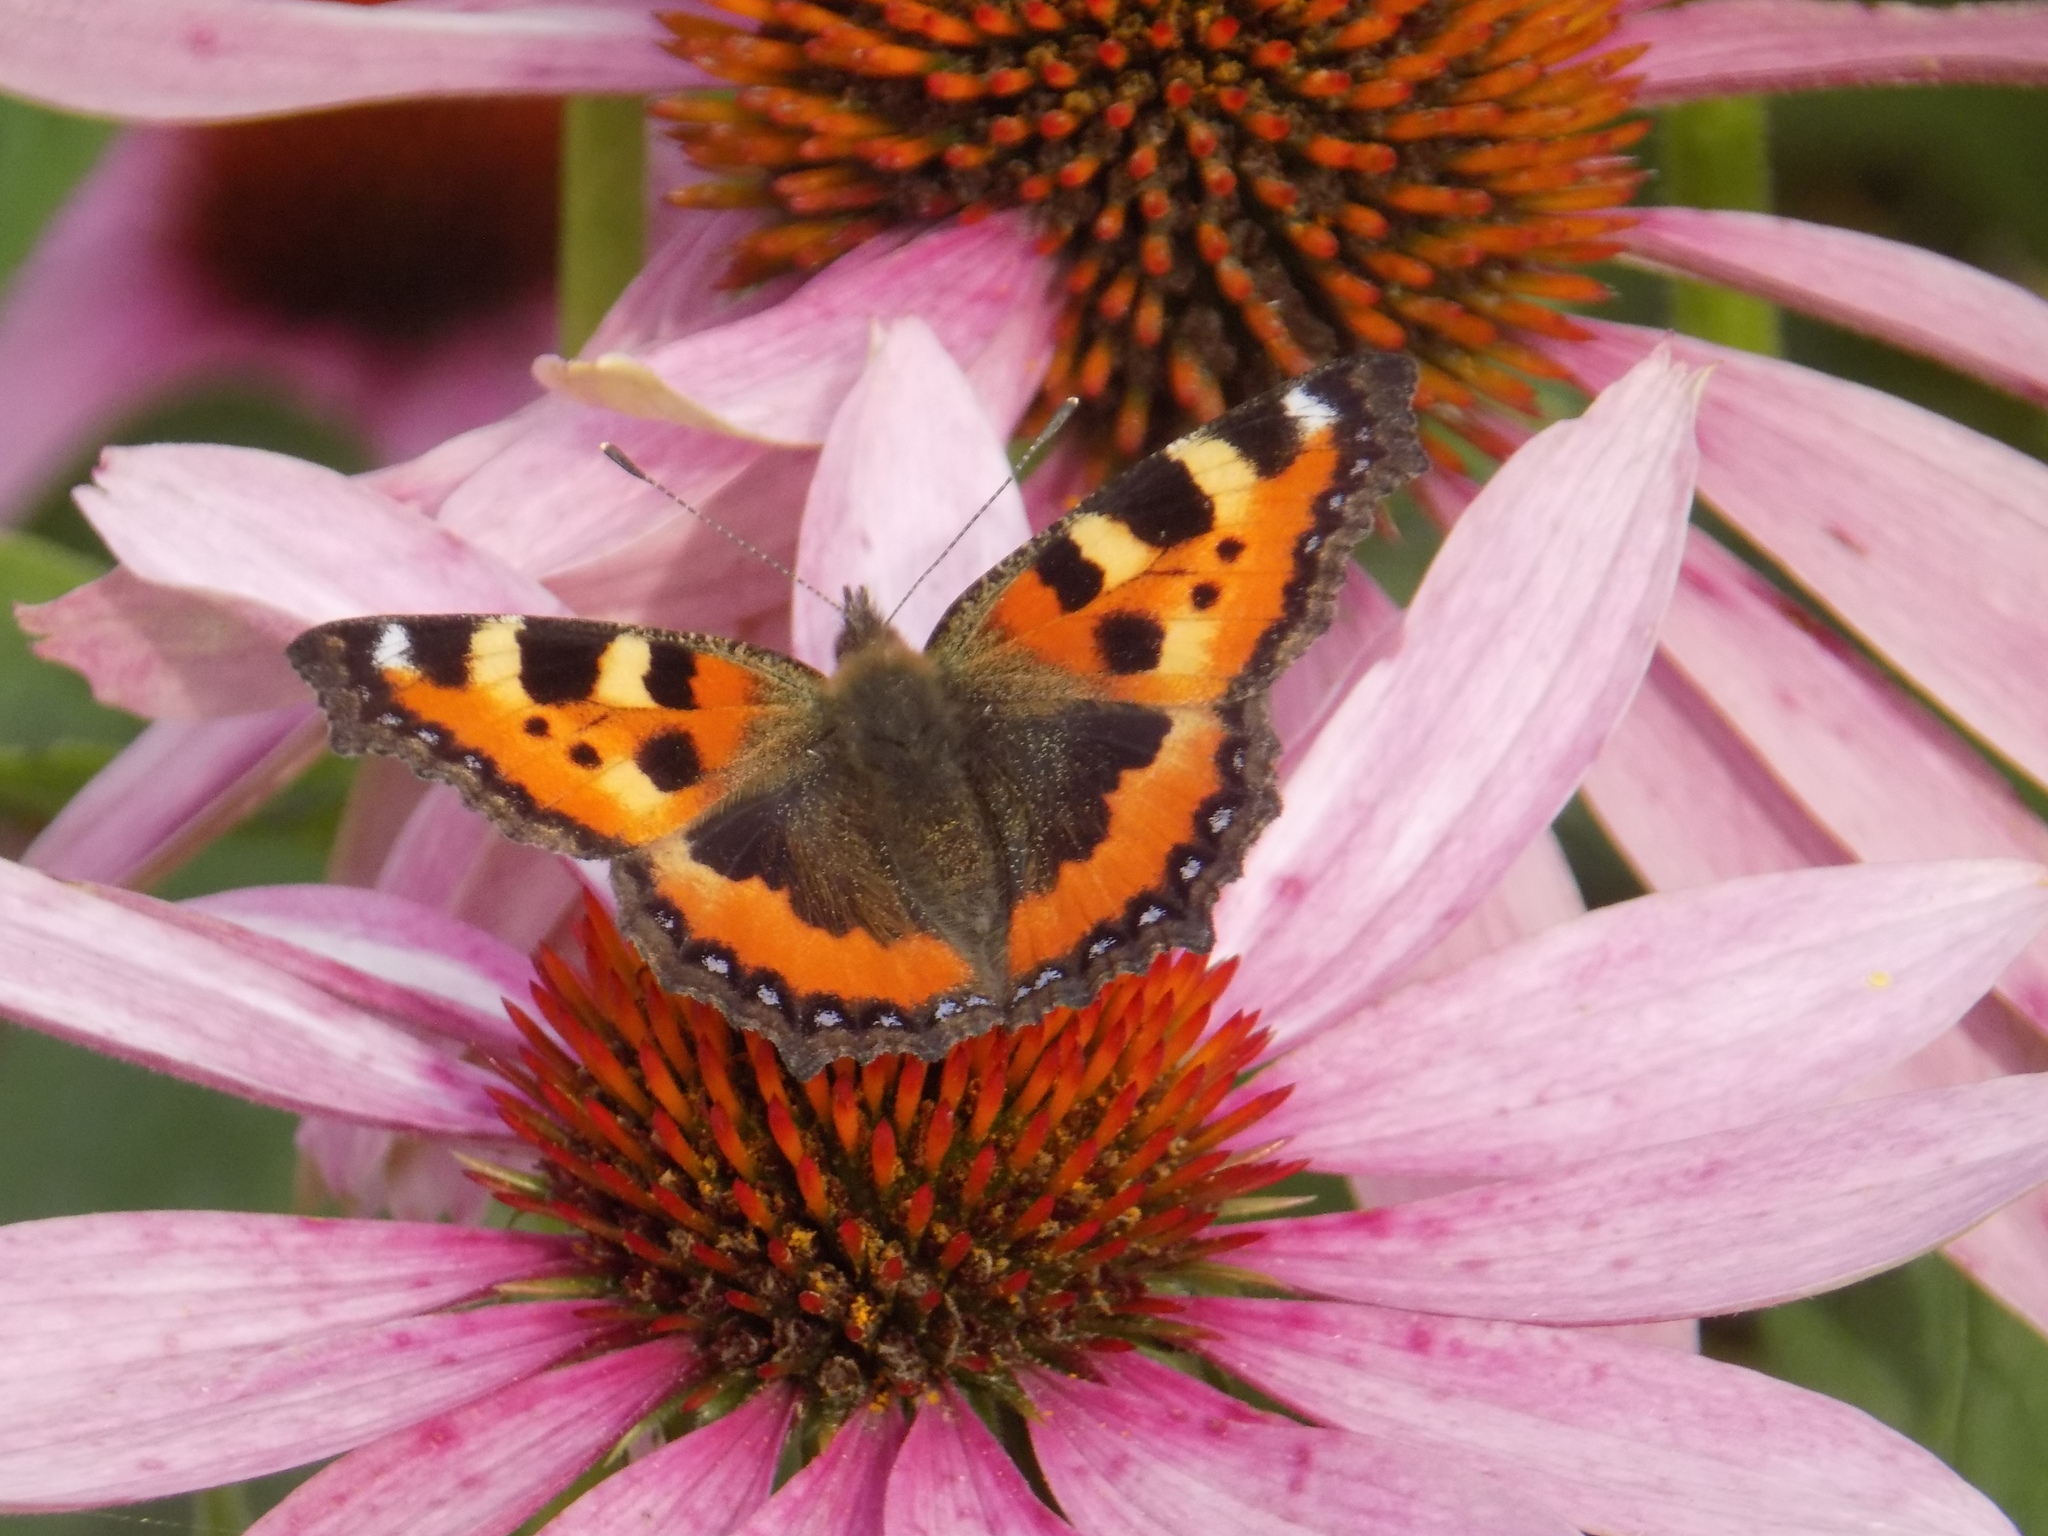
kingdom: Animalia
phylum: Arthropoda
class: Insecta
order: Lepidoptera
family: Nymphalidae
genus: Aglais
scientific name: Aglais urticae
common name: Small tortoiseshell
